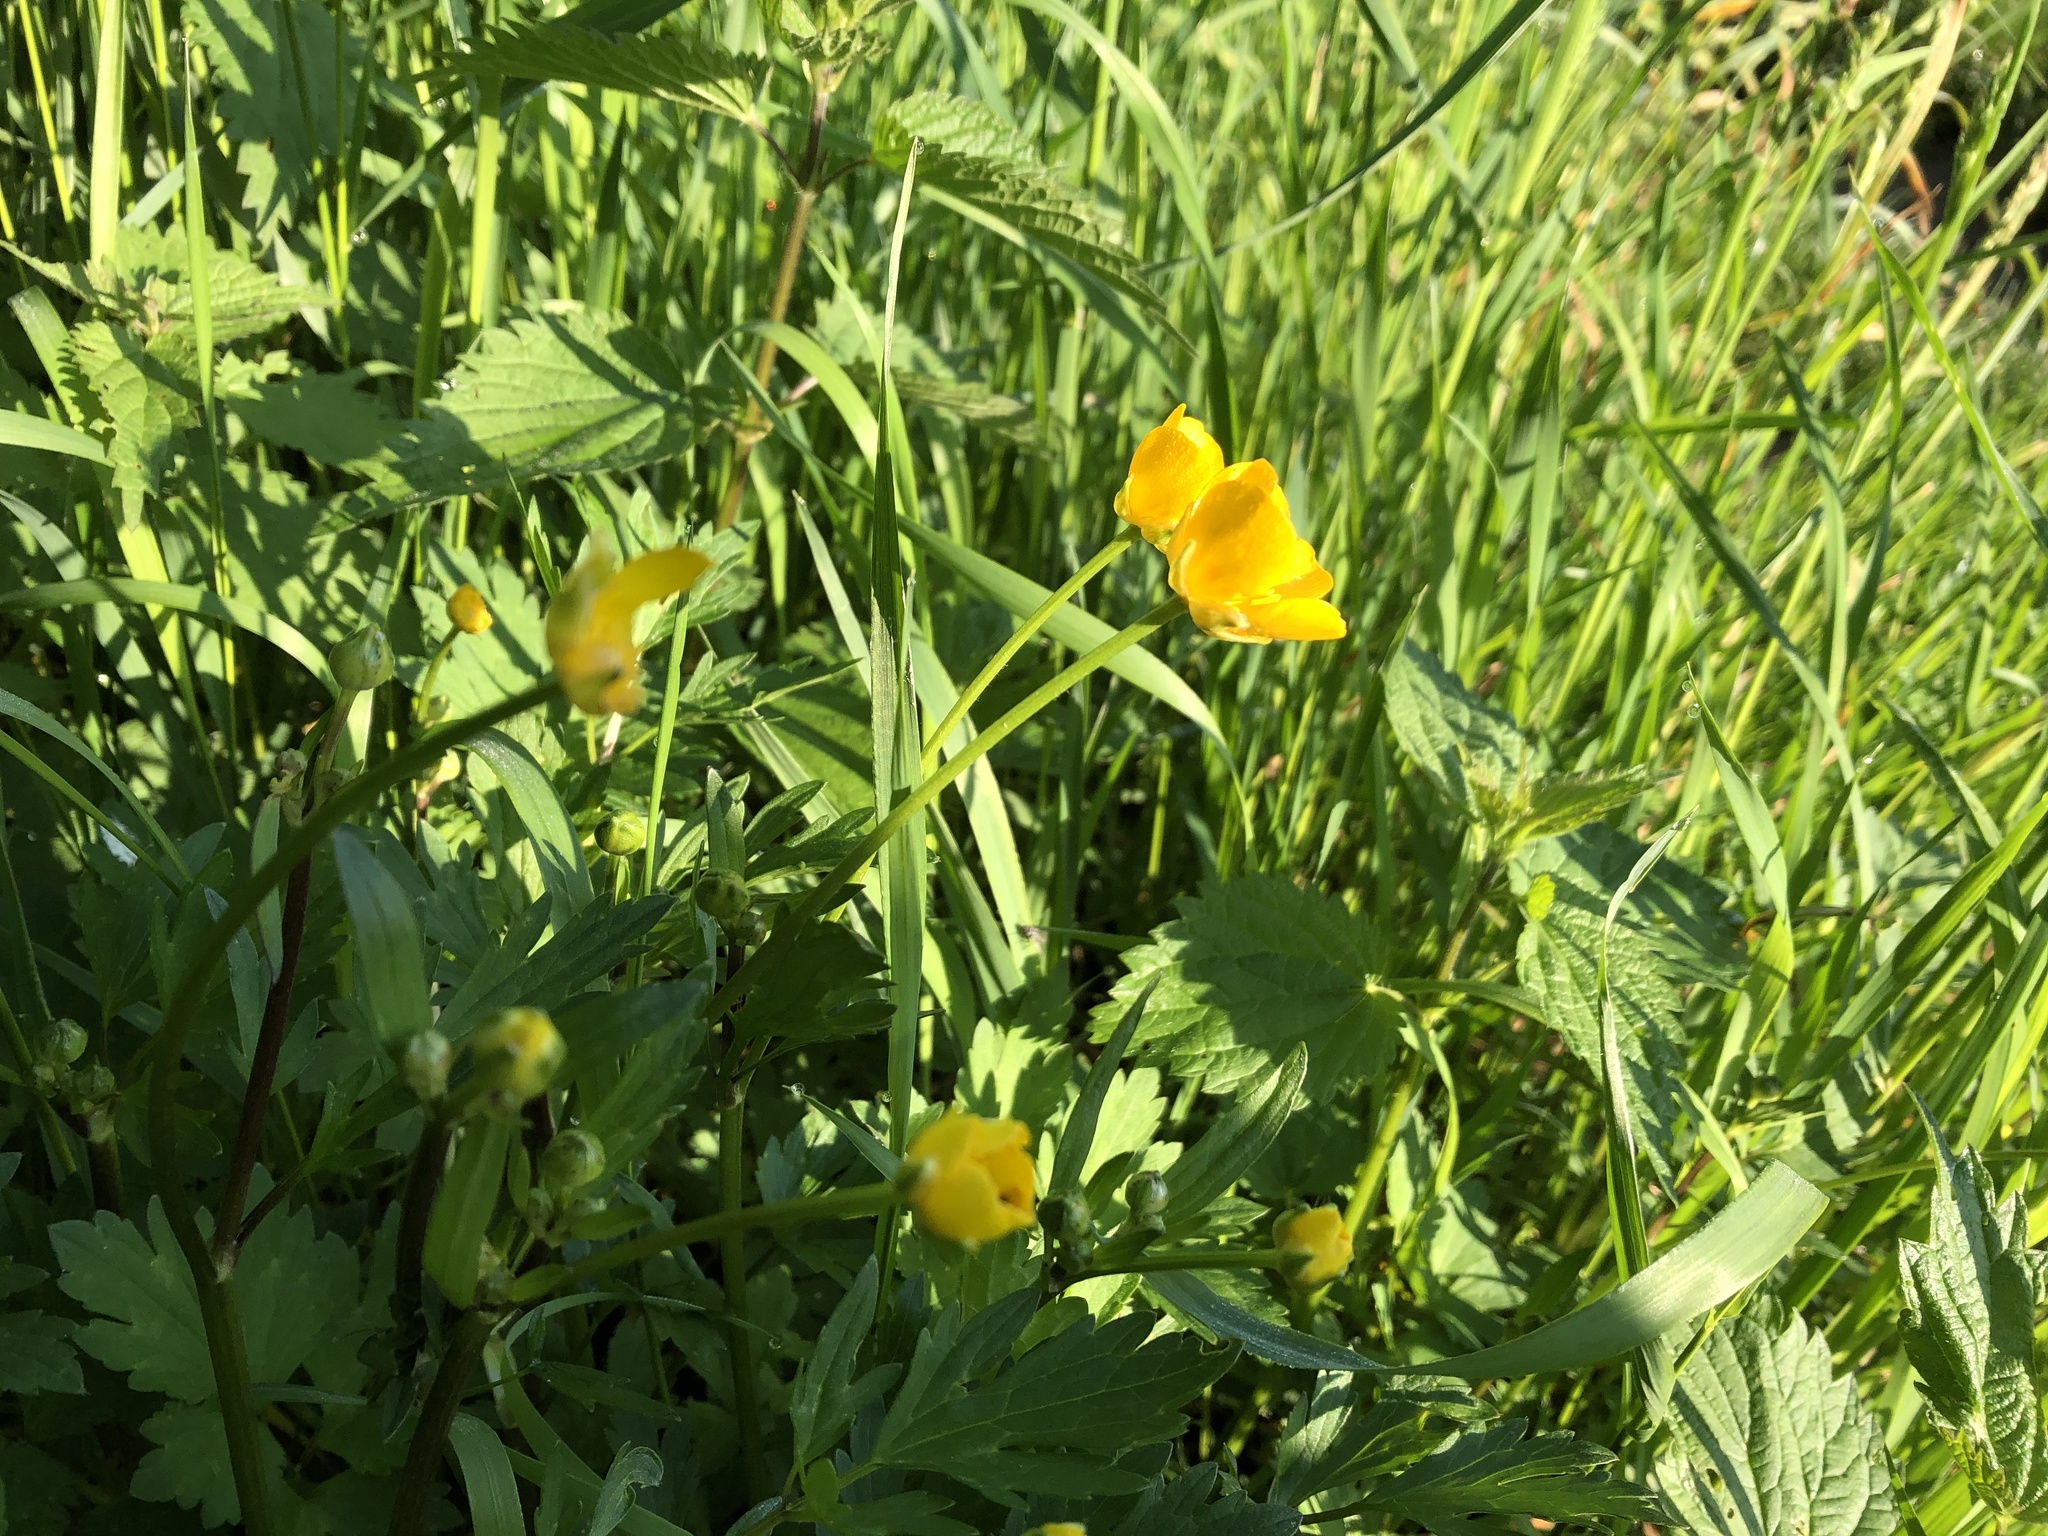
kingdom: Plantae
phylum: Tracheophyta
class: Magnoliopsida
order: Ranunculales
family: Ranunculaceae
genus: Ranunculus
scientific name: Ranunculus repens
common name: Creeping buttercup
